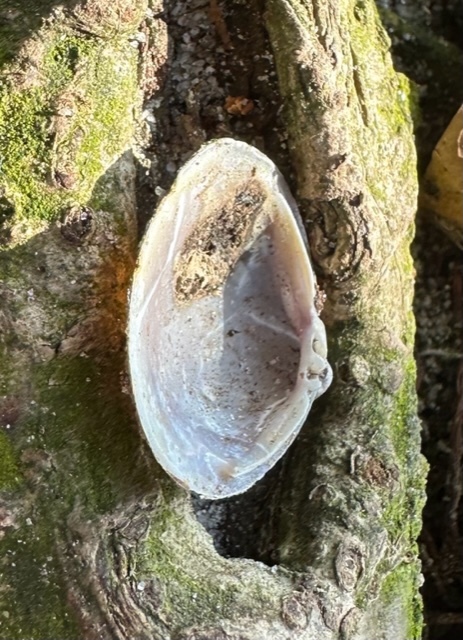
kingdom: Animalia
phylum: Mollusca
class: Bivalvia
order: Venerida
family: Cyrenidae
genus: Corbicula
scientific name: Corbicula fluminea
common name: Asian clam
